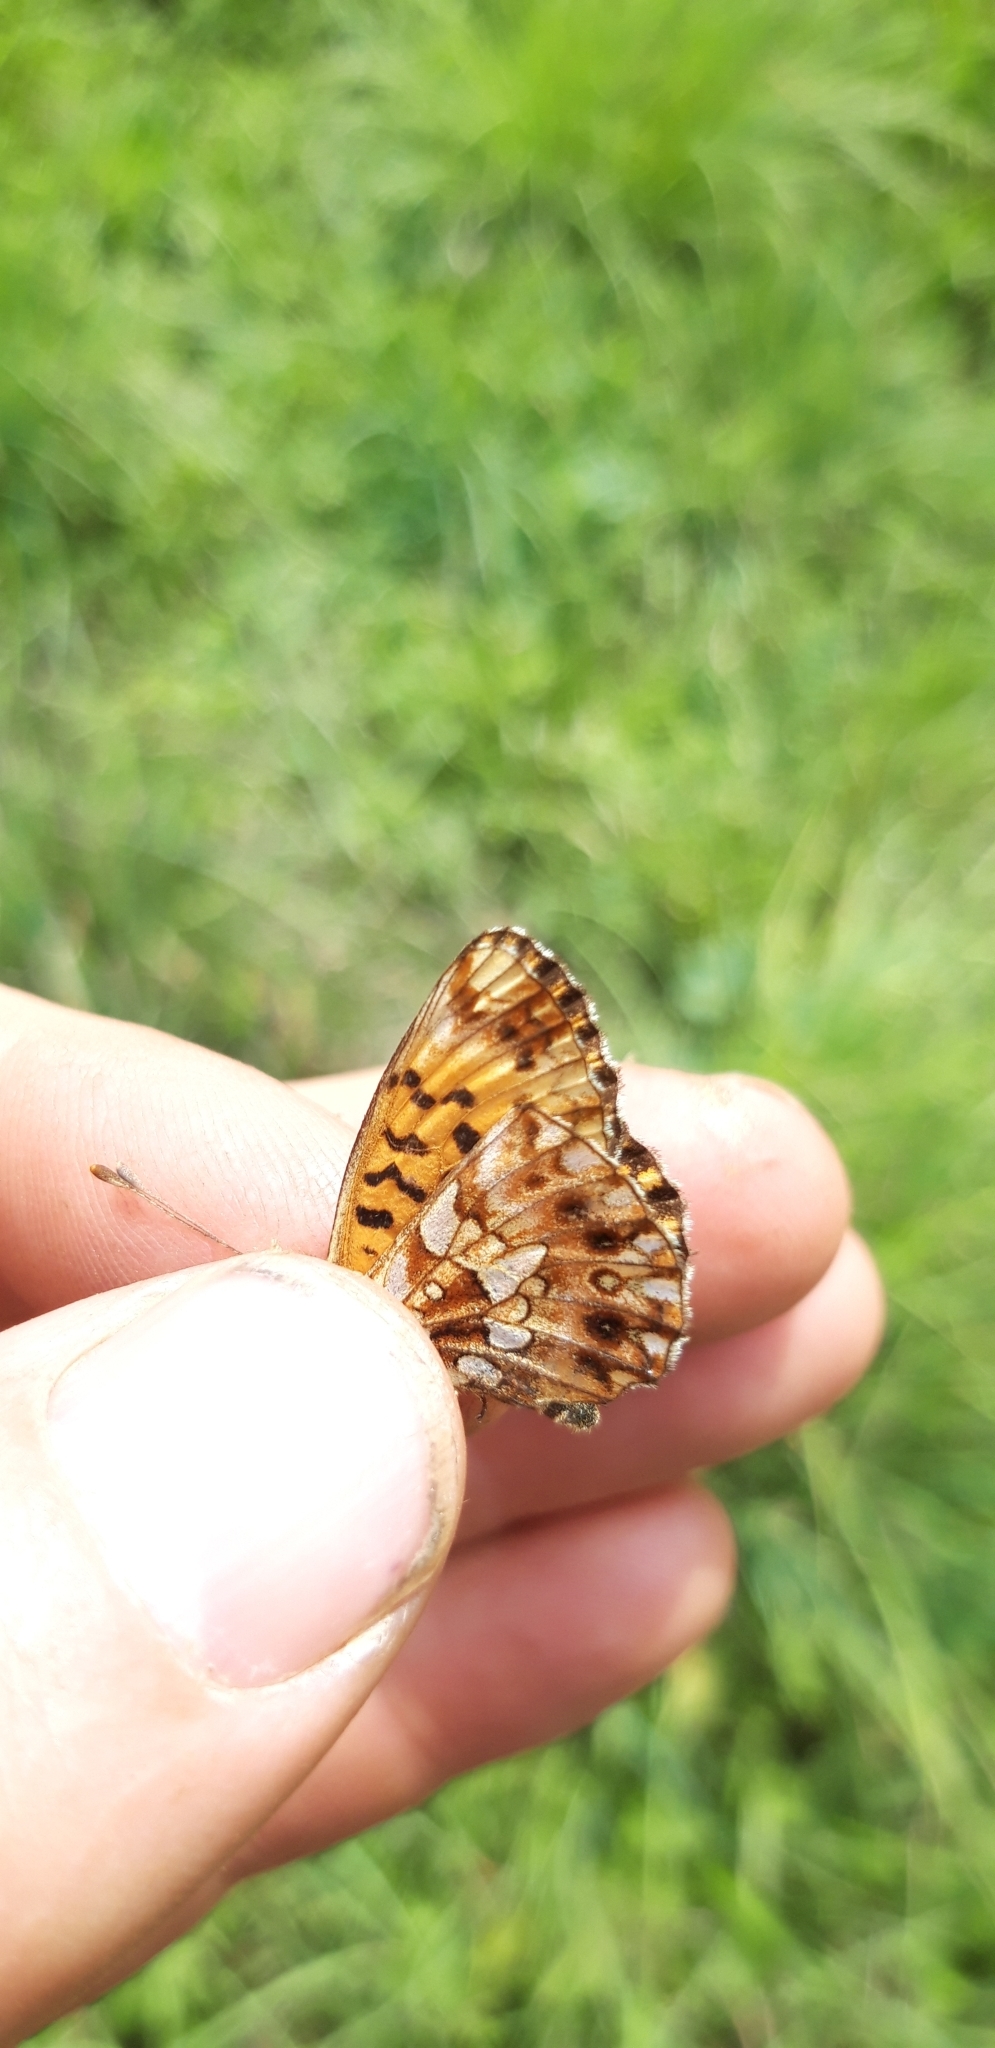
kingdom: Animalia
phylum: Arthropoda
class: Insecta
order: Lepidoptera
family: Nymphalidae
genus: Boloria
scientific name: Boloria dia
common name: Weaver's fritillary
